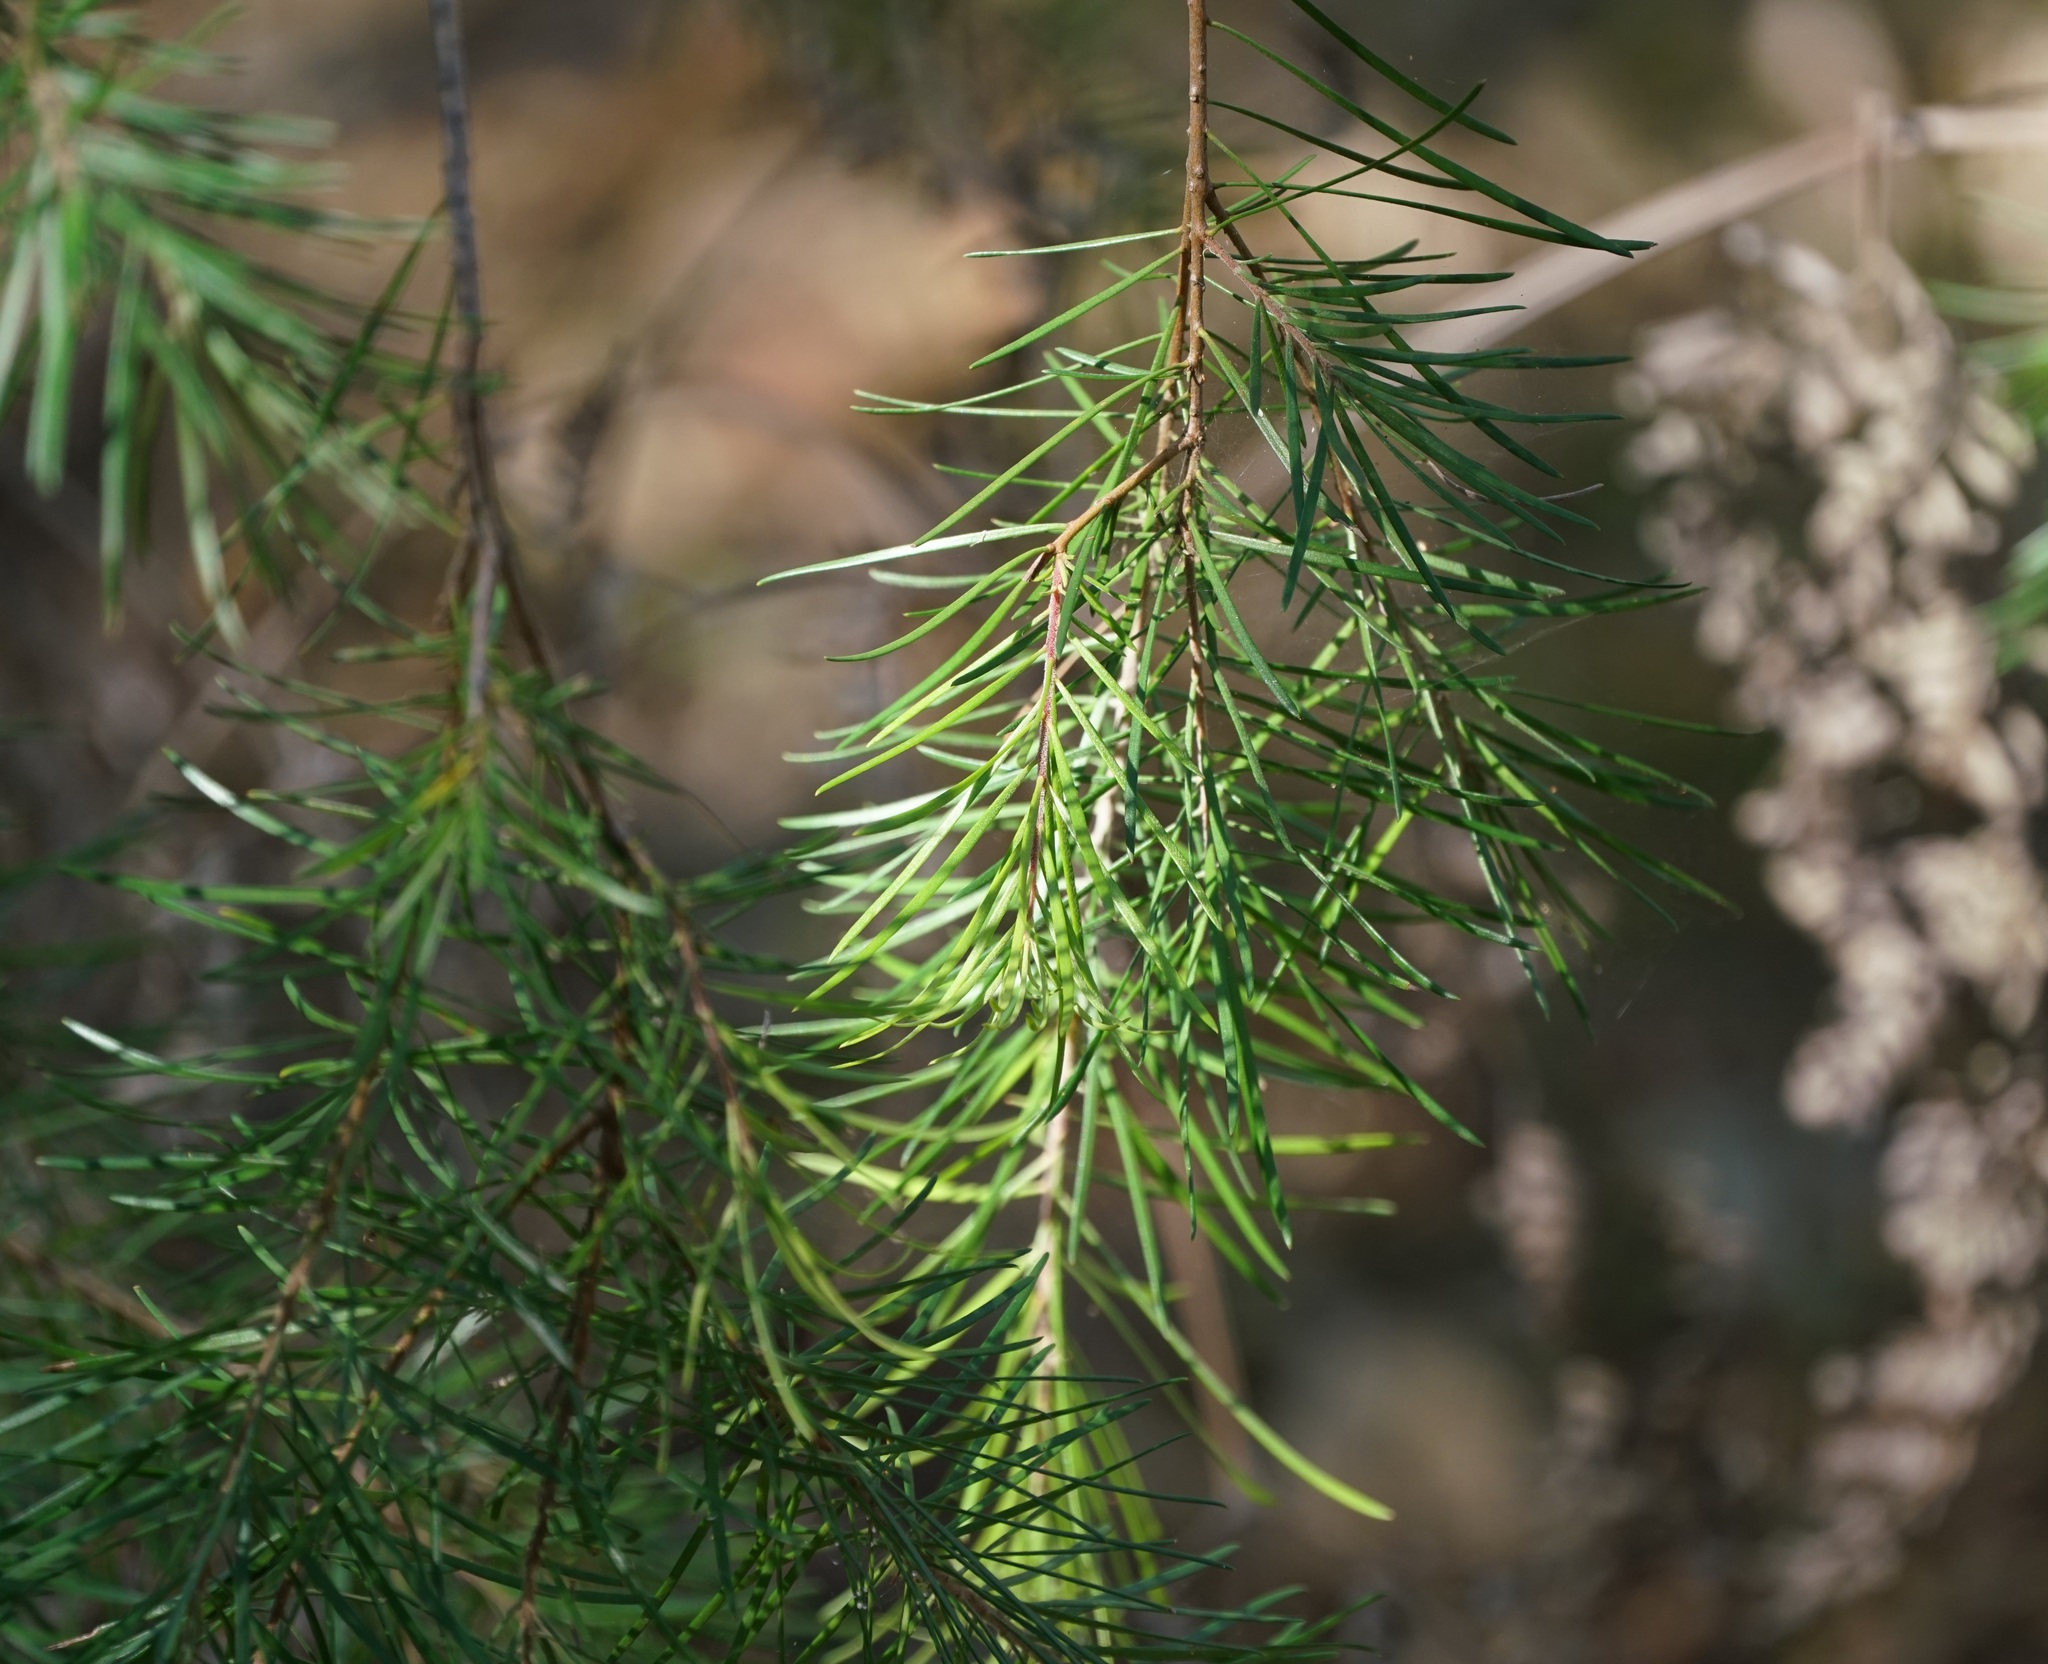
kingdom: Plantae
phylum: Tracheophyta
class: Magnoliopsida
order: Proteales
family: Proteaceae
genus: Persoonia
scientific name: Persoonia linearis
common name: Narrow-leaf geebung
